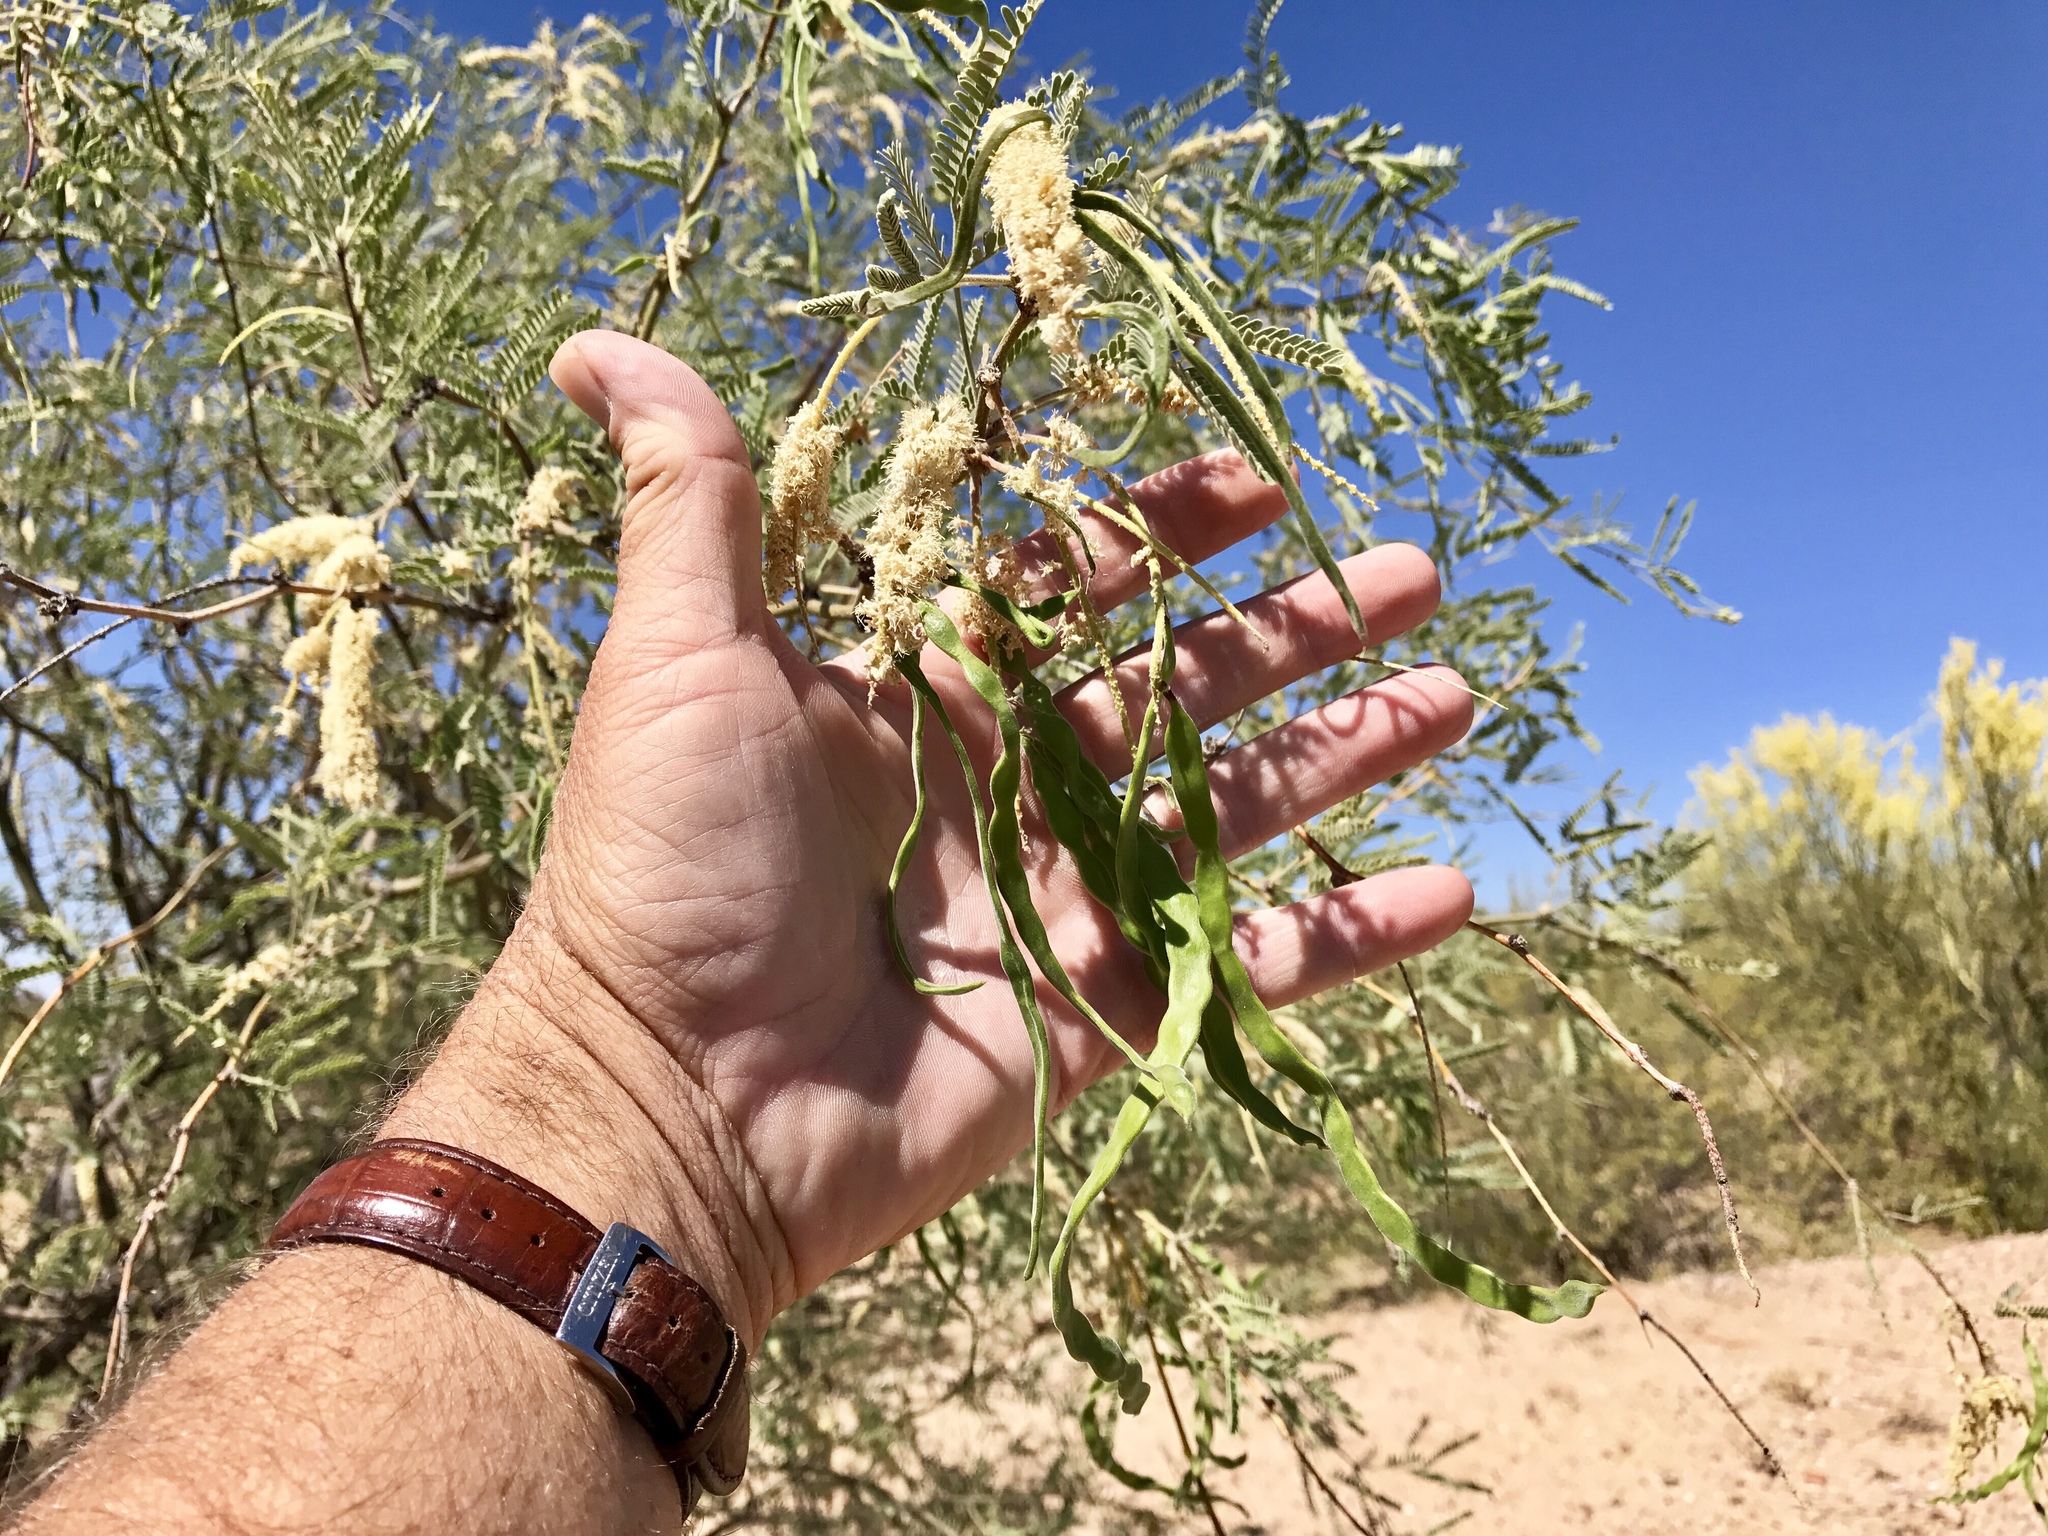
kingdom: Plantae
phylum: Tracheophyta
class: Magnoliopsida
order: Fabales
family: Fabaceae
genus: Prosopis
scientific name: Prosopis glandulosa
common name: Honey mesquite
